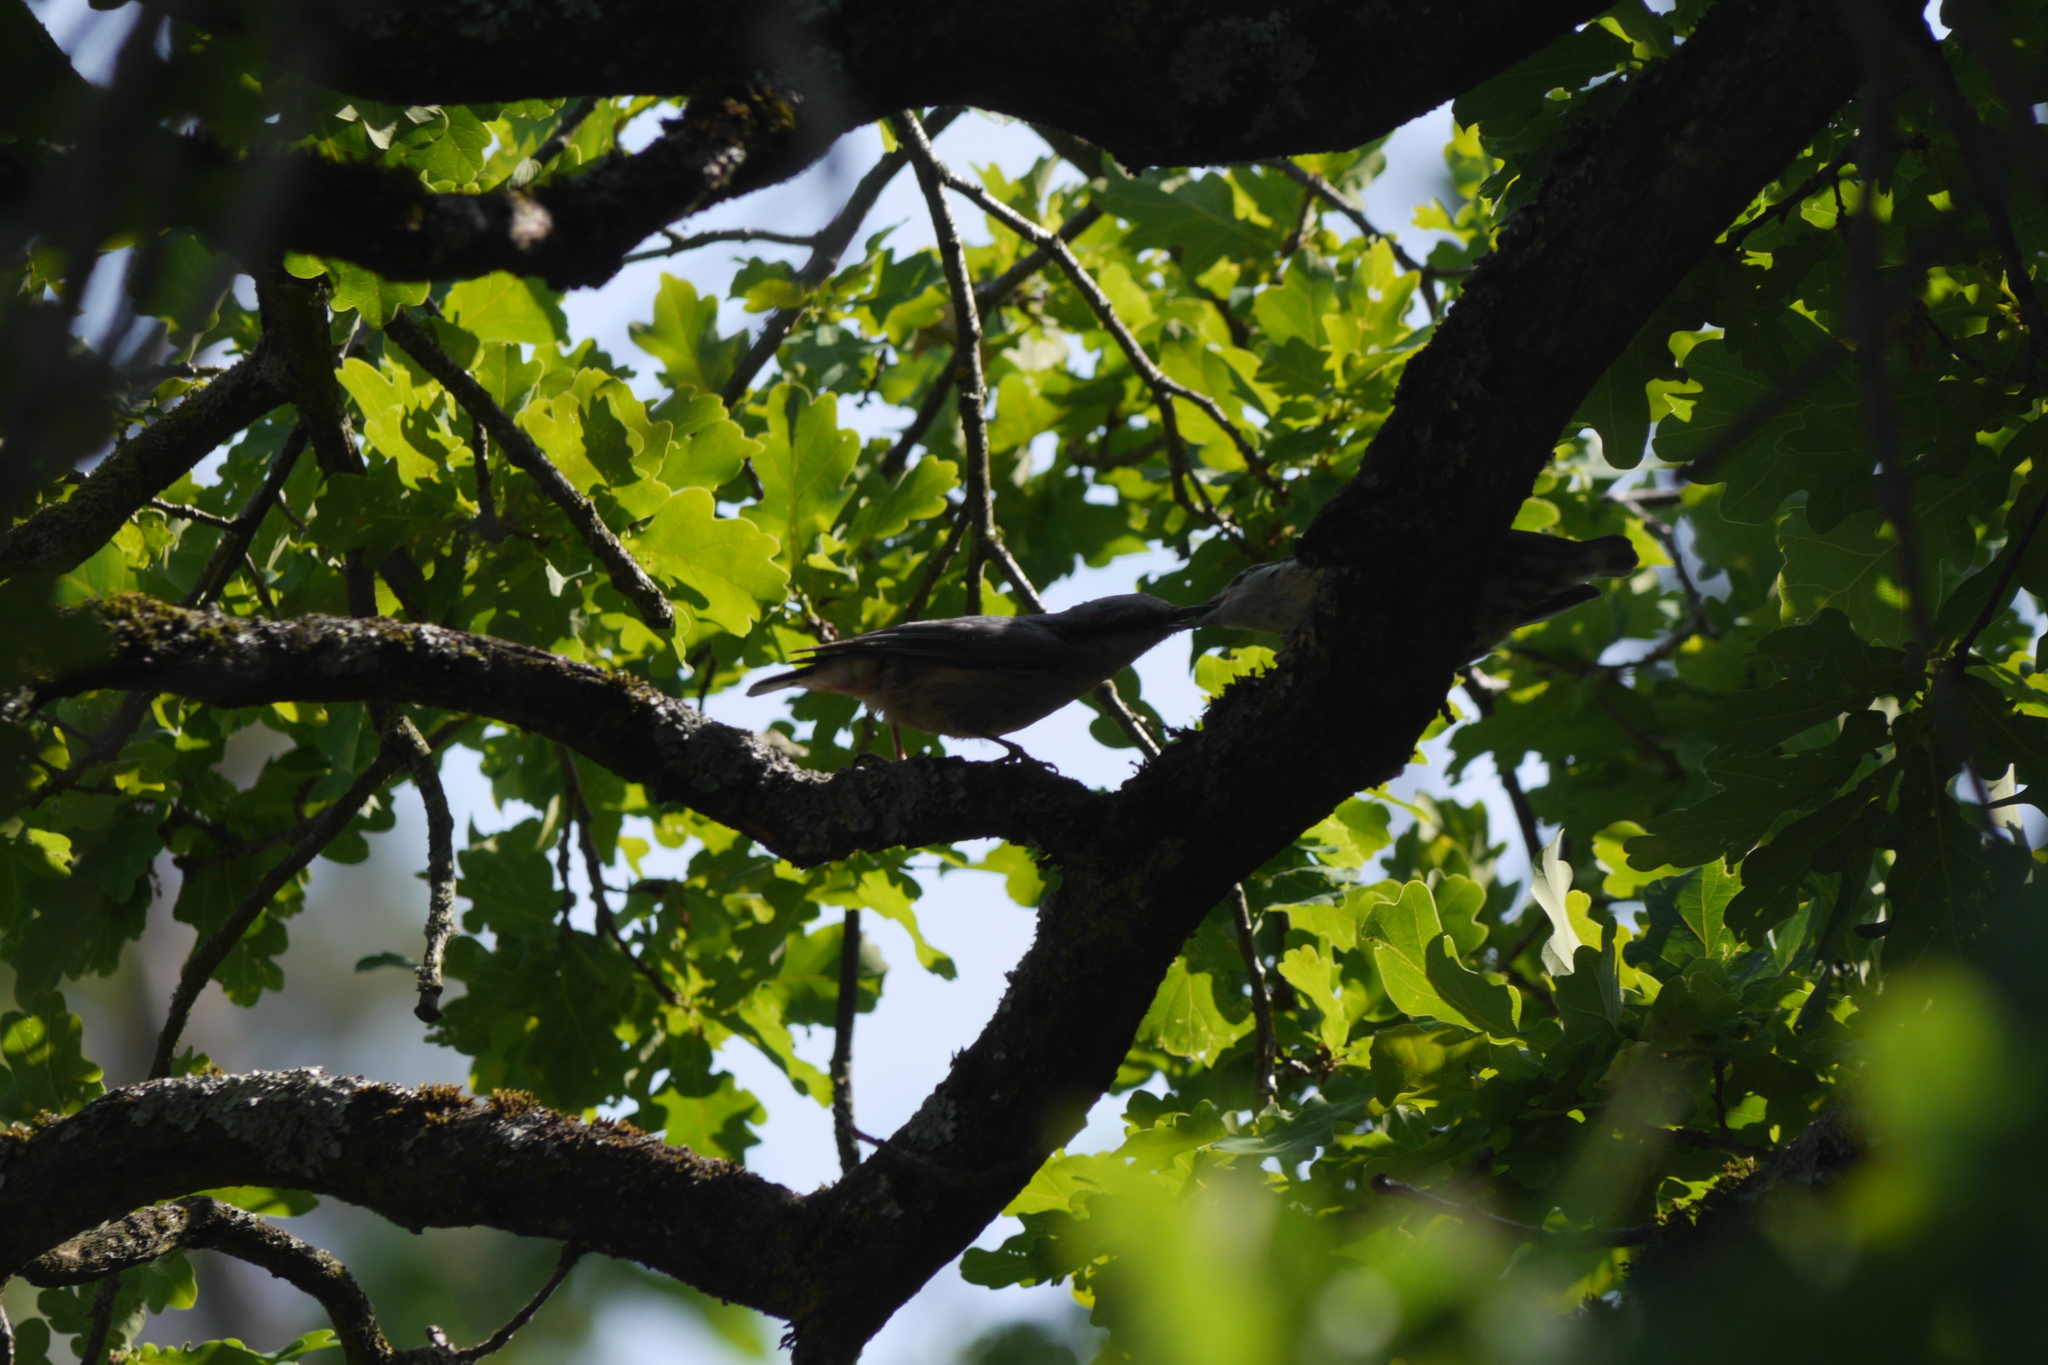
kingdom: Animalia
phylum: Chordata
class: Aves
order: Passeriformes
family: Sittidae
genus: Sitta
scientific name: Sitta europaea
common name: Eurasian nuthatch
